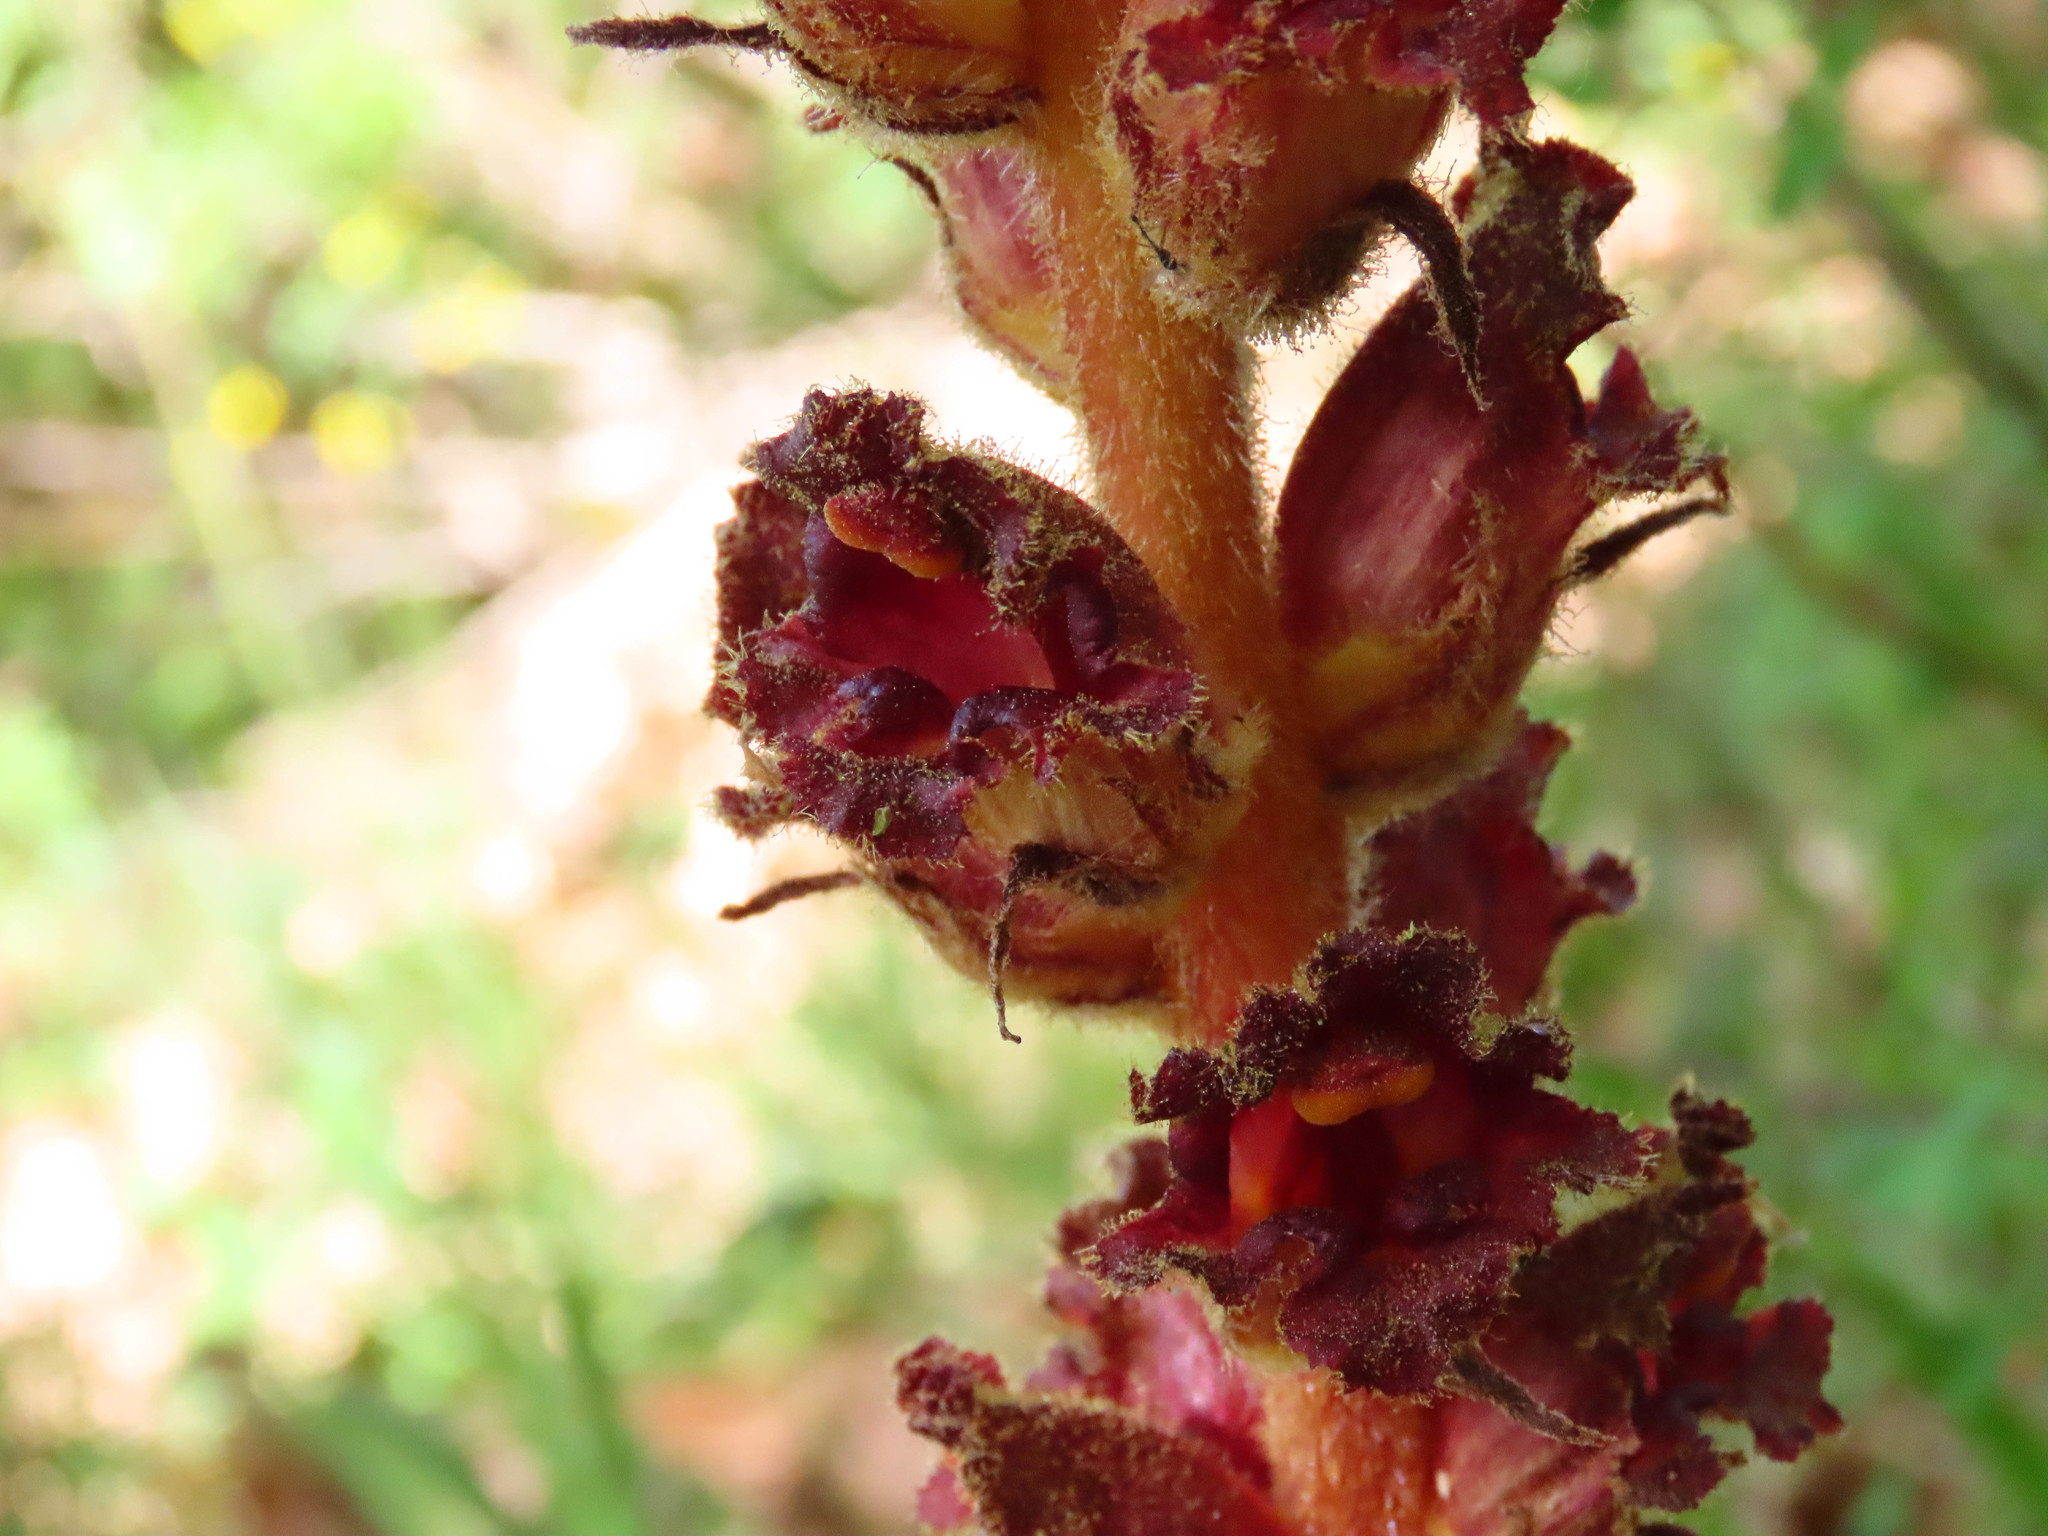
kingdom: Plantae
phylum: Tracheophyta
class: Magnoliopsida
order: Lamiales
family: Orobanchaceae
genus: Orobanche
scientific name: Orobanche gracilis
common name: Slender broomrape
